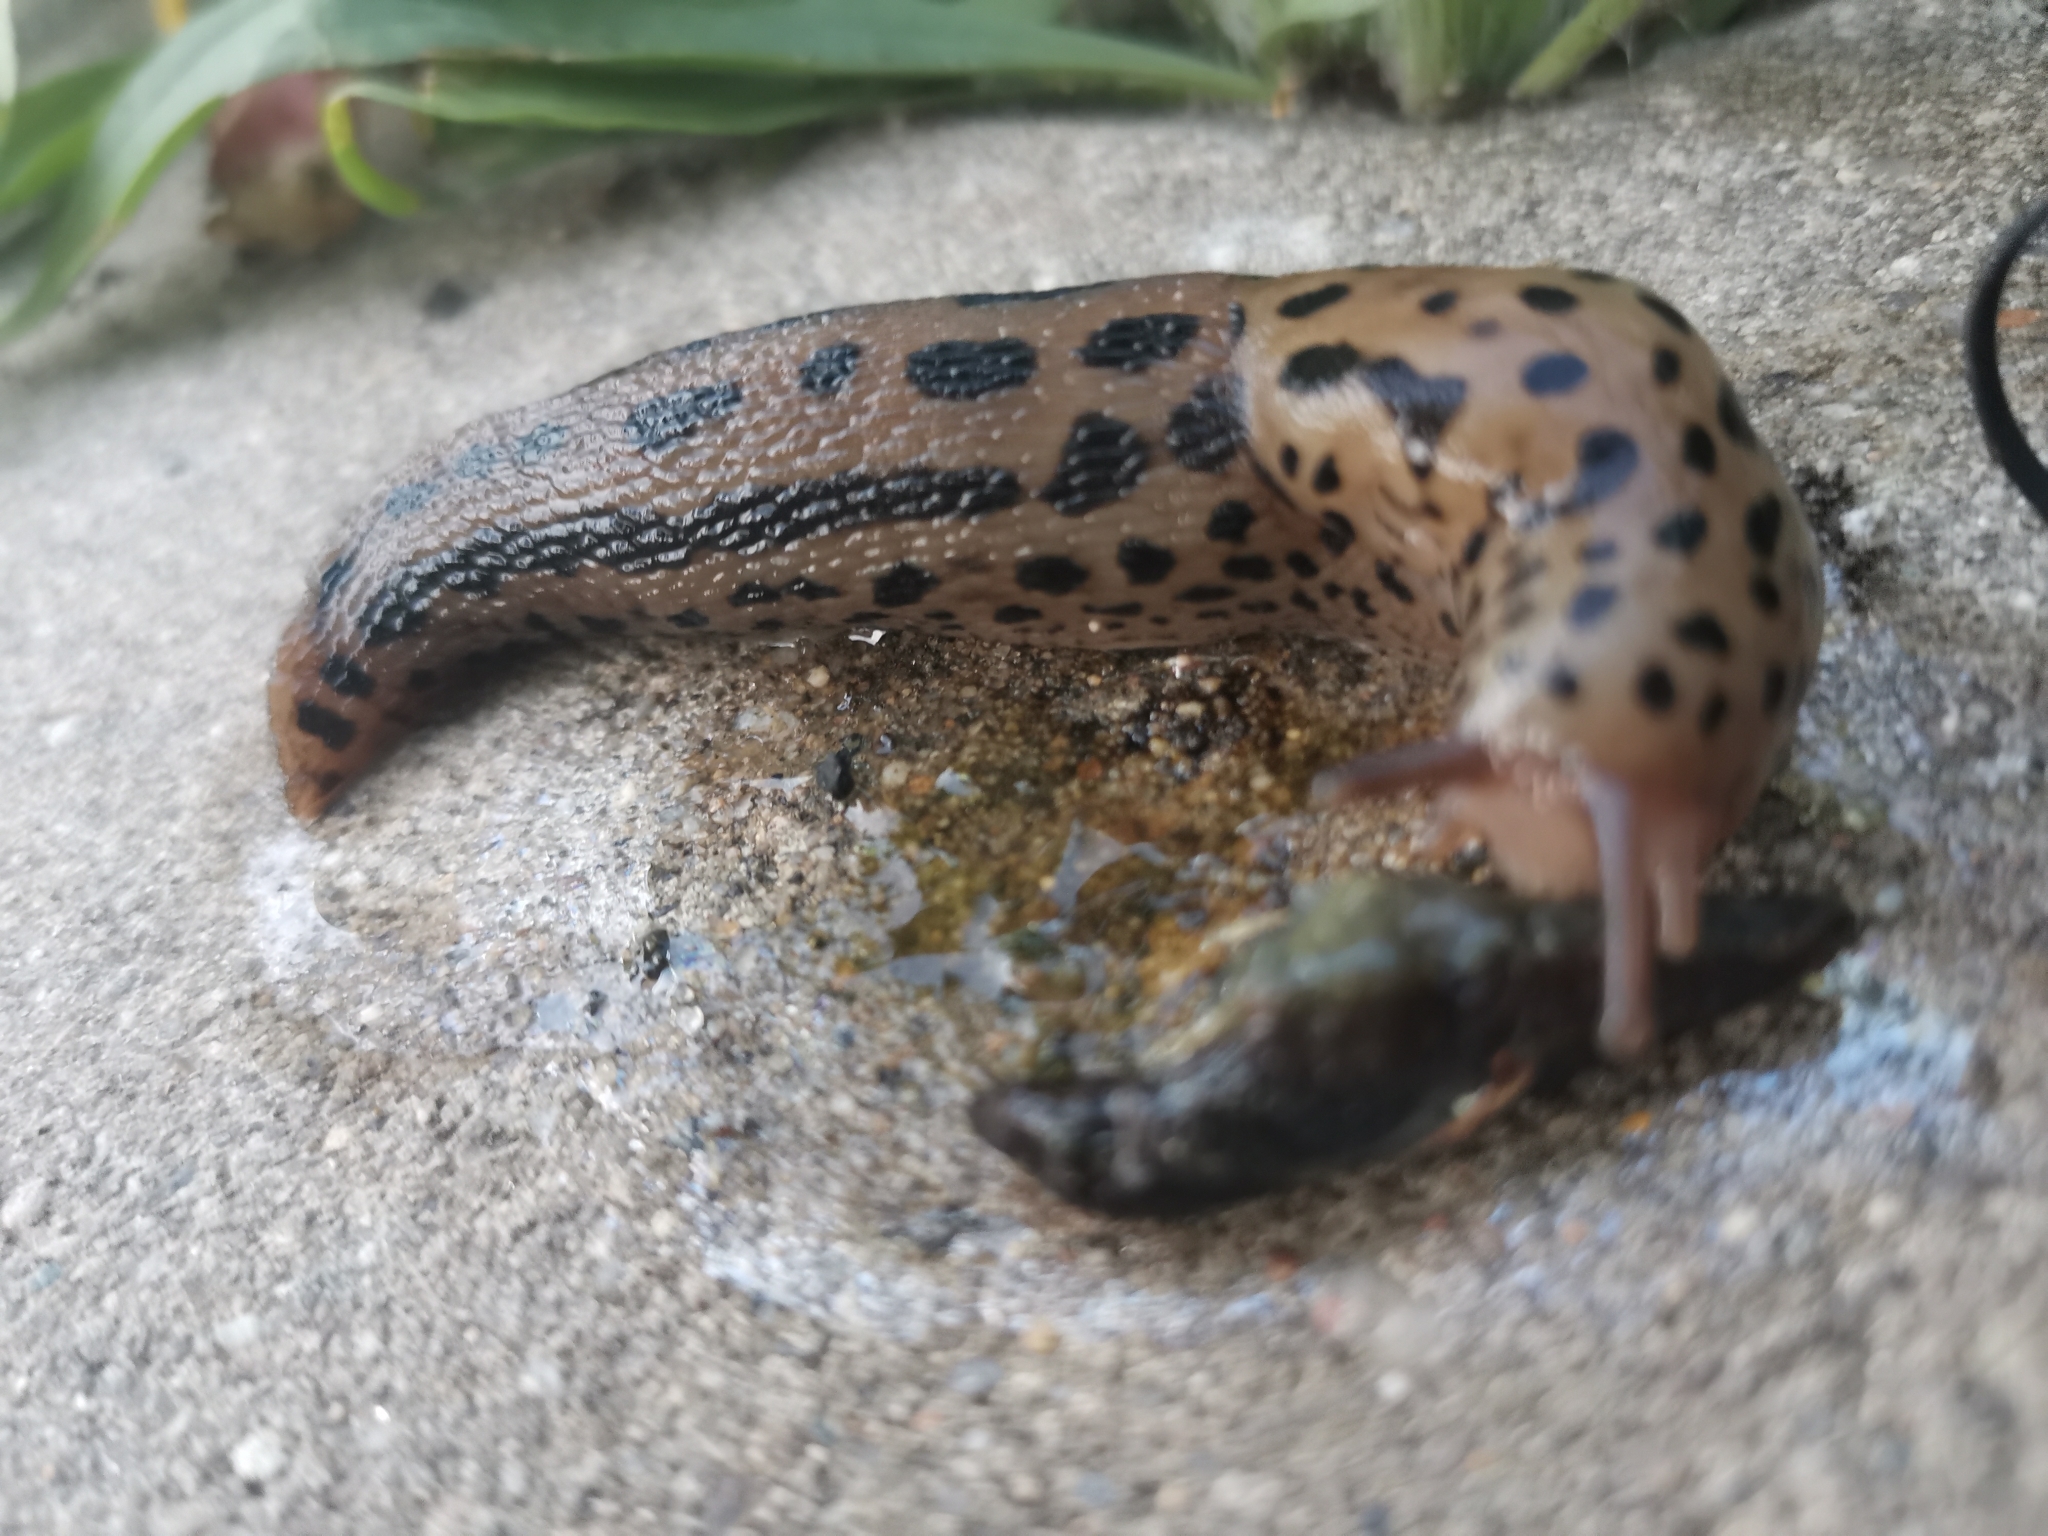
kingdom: Animalia
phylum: Mollusca
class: Gastropoda
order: Stylommatophora
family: Limacidae
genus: Limax
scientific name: Limax maximus
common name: Great grey slug
